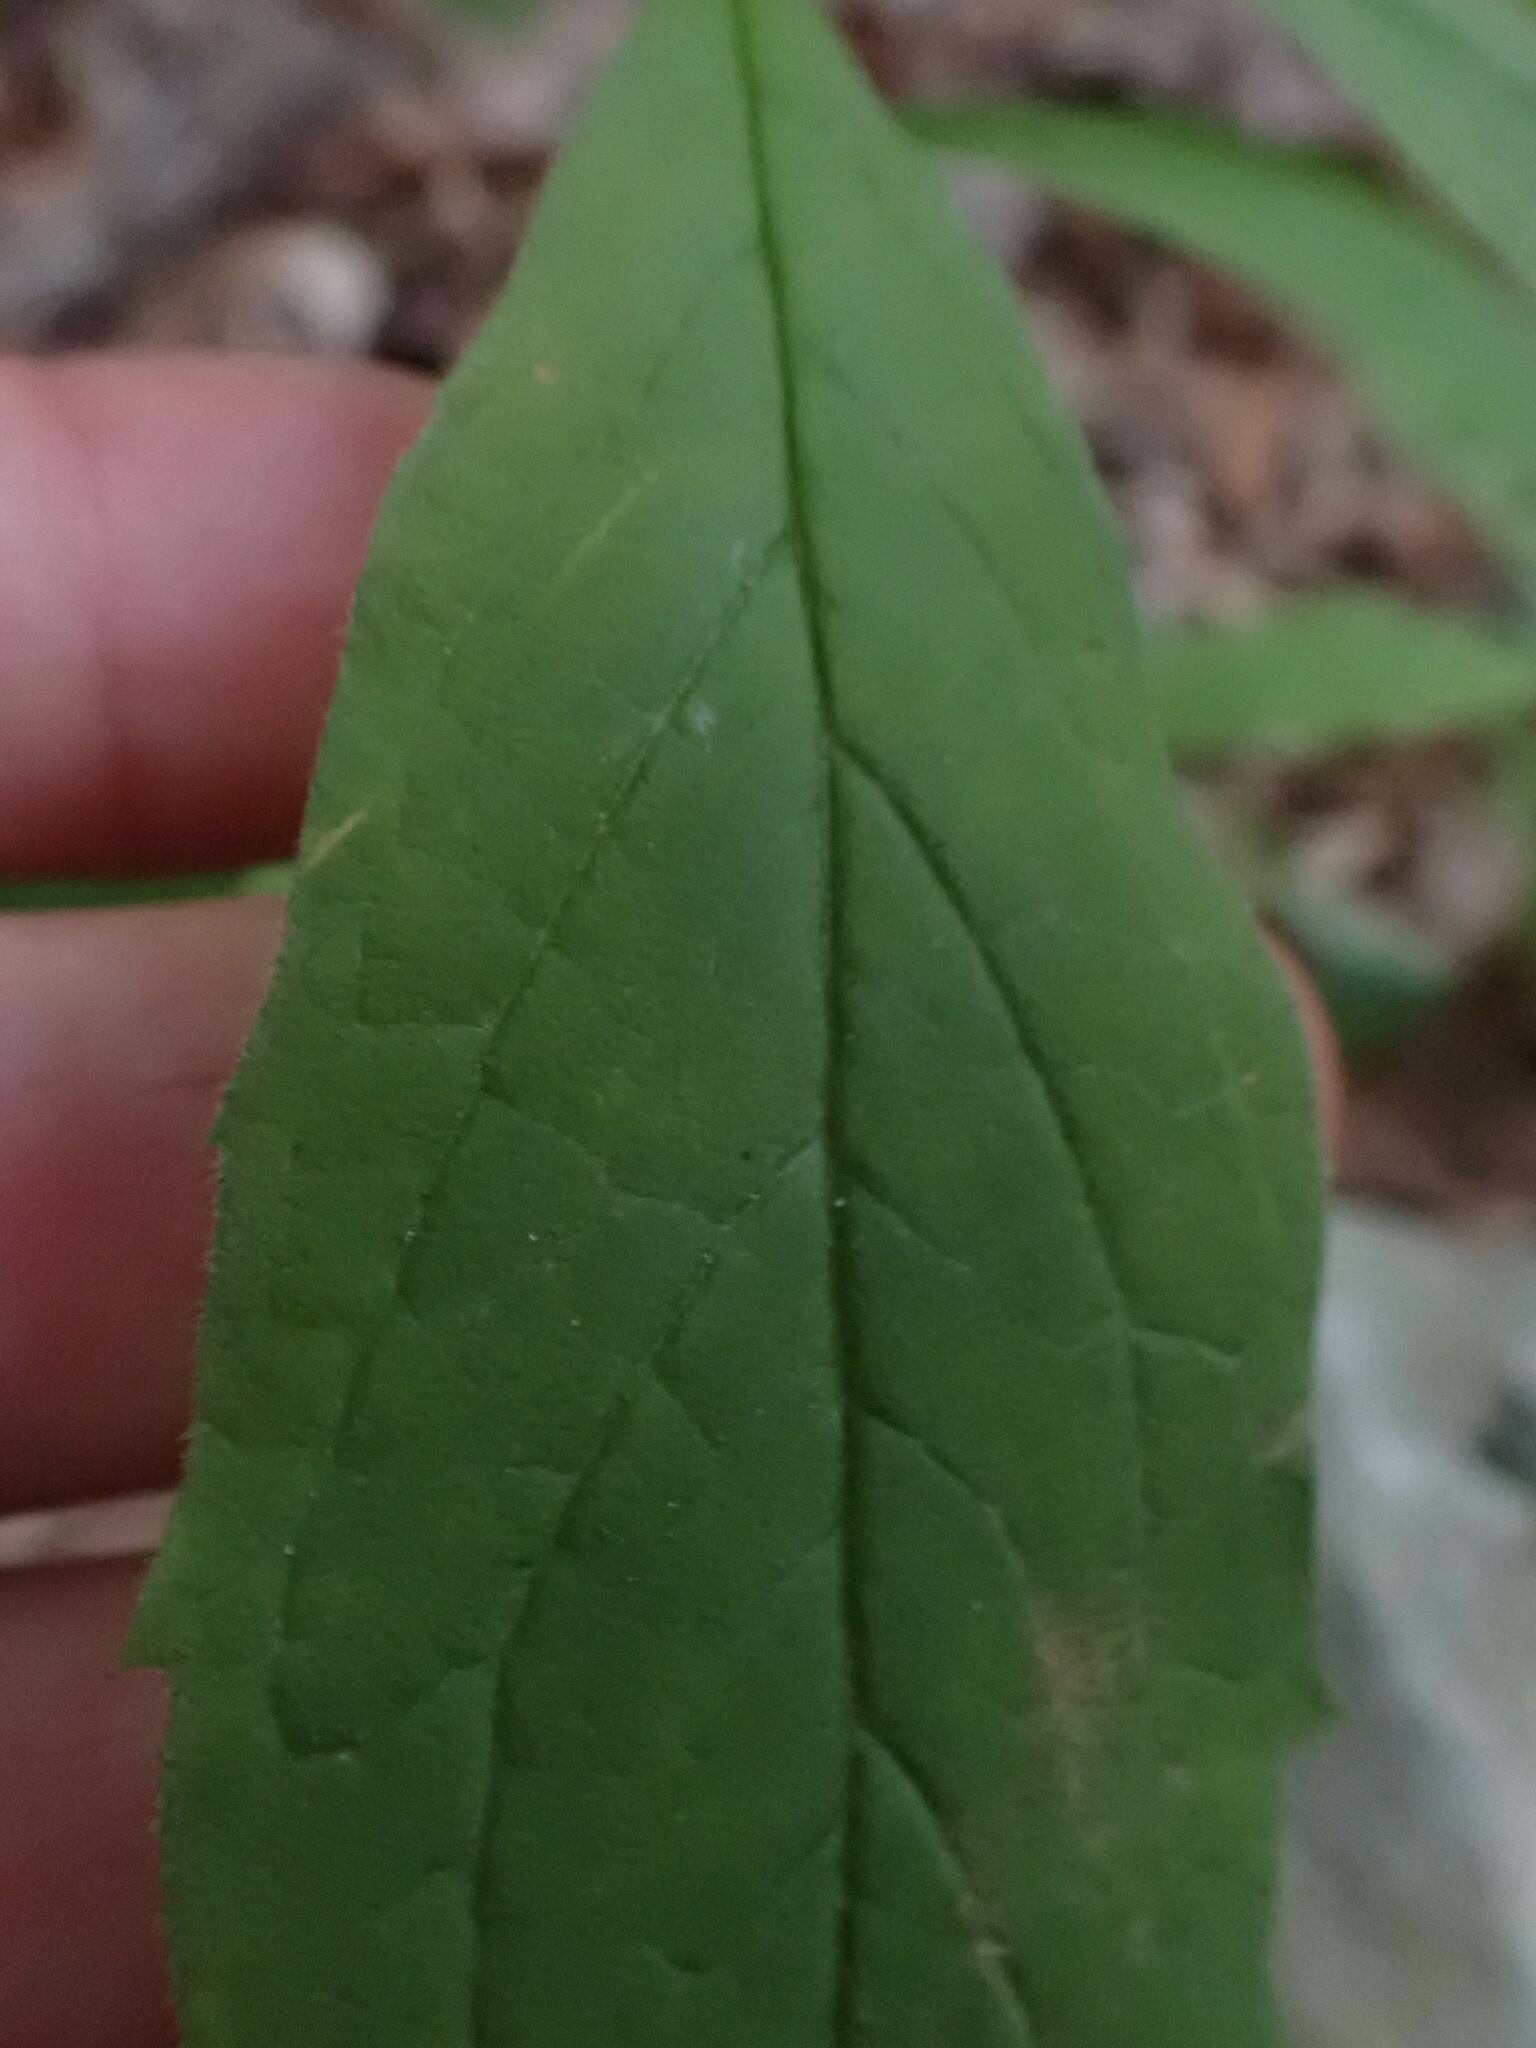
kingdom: Plantae
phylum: Tracheophyta
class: Magnoliopsida
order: Asterales
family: Asteraceae
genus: Oclemena
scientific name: Oclemena acuminata
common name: Mountain aster
